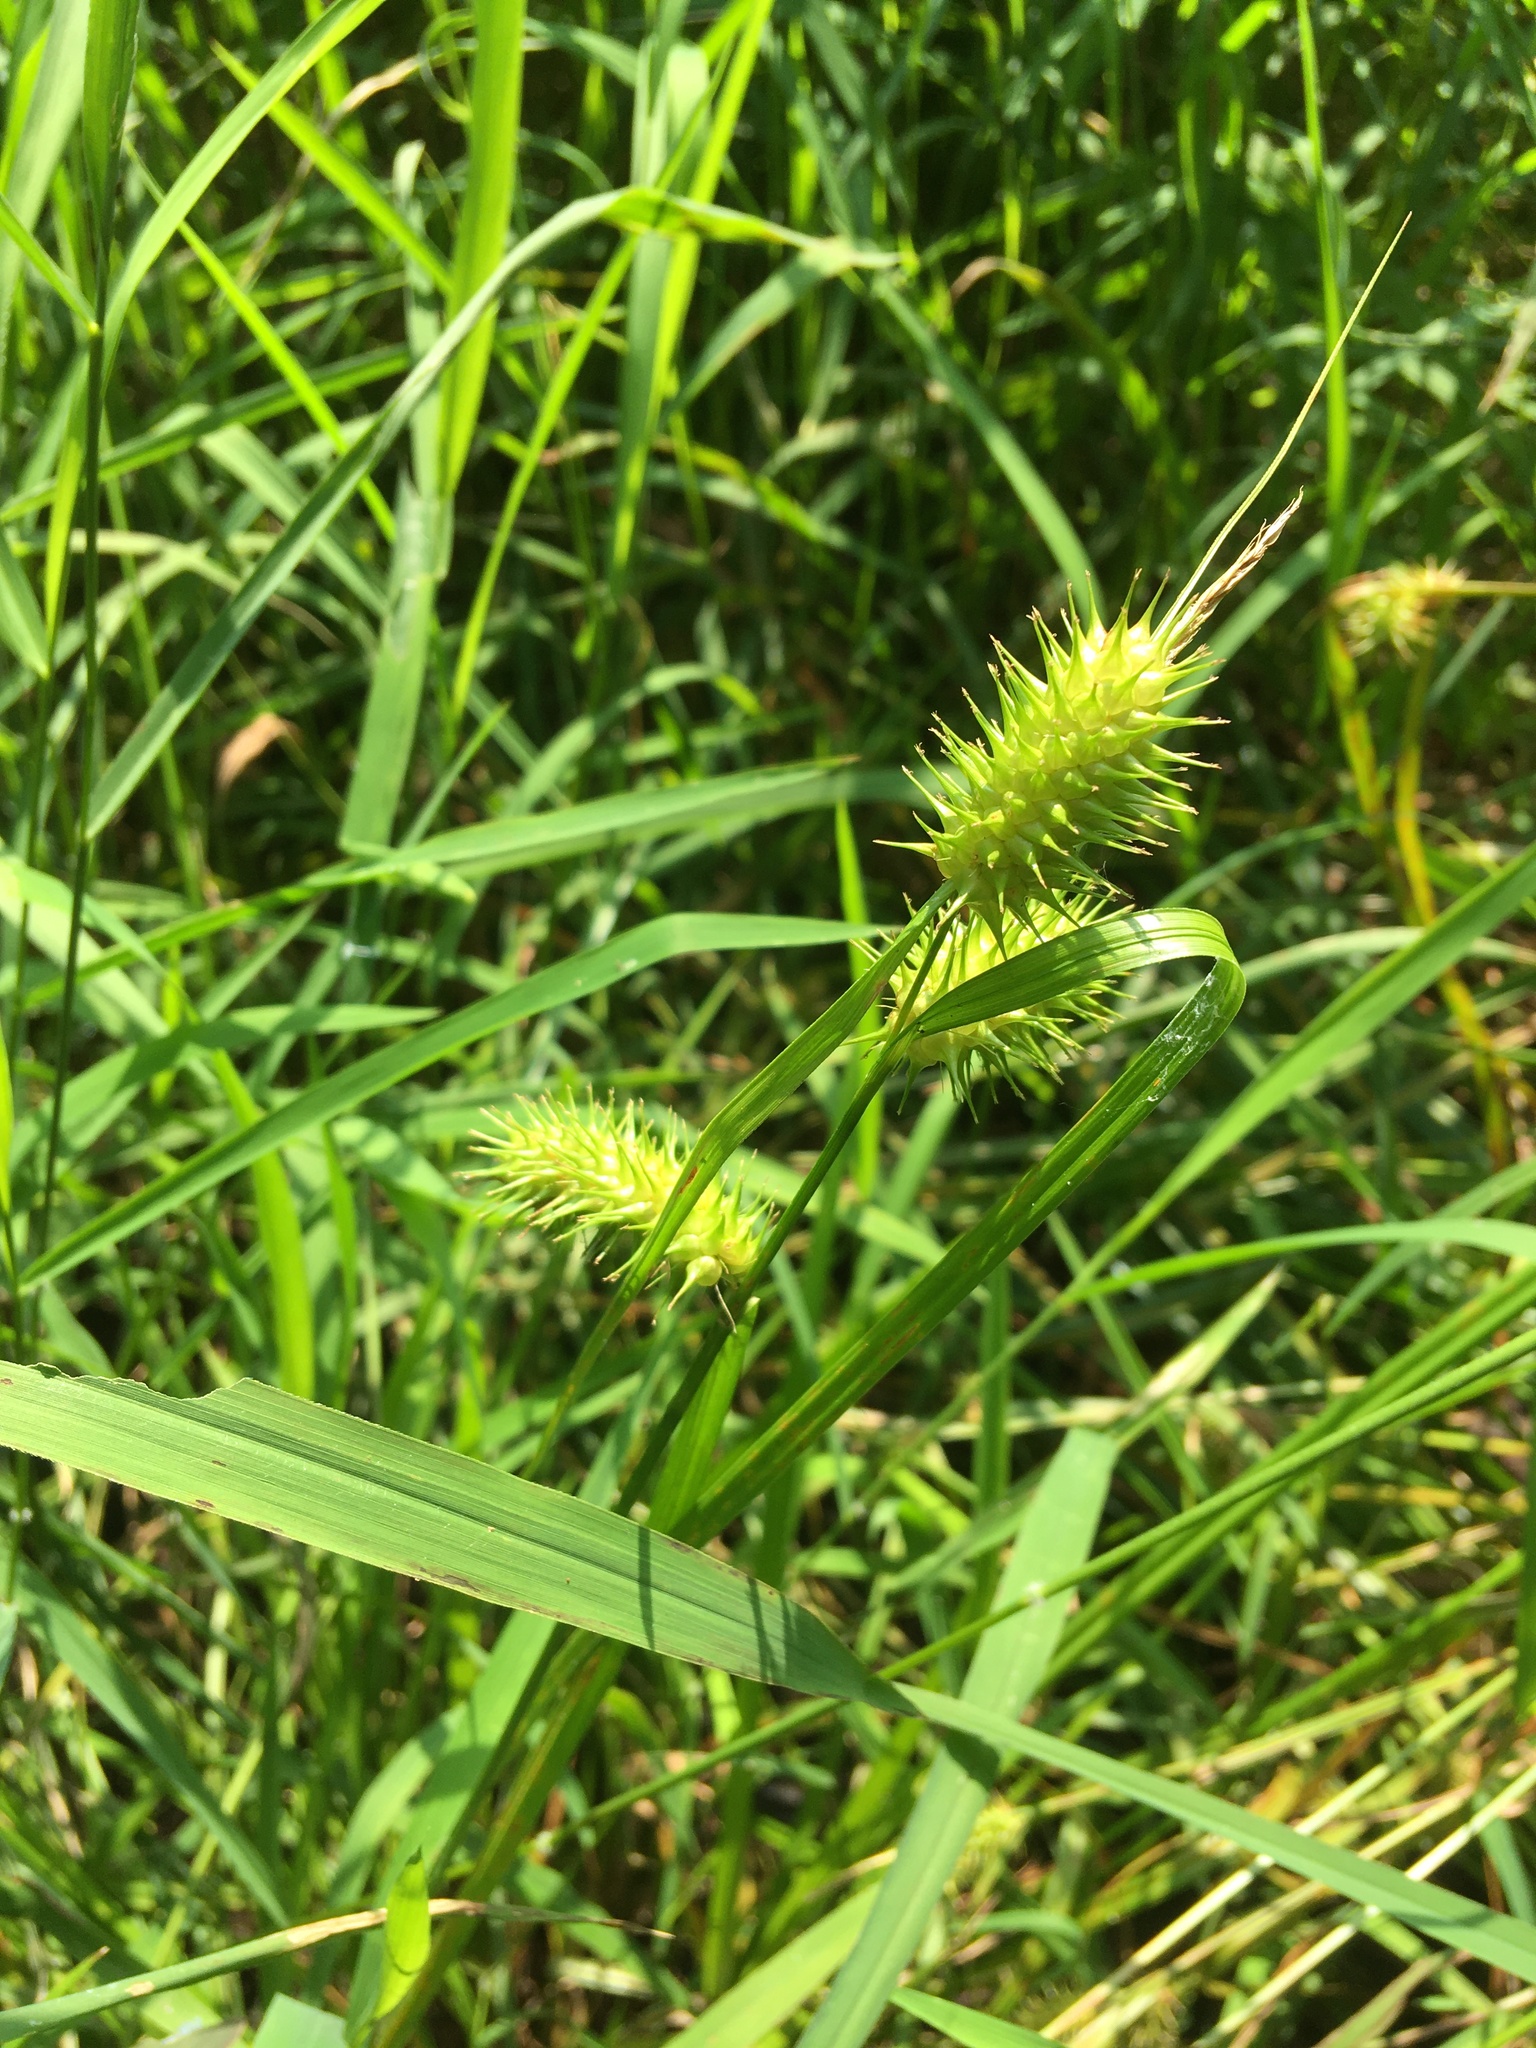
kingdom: Plantae
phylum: Tracheophyta
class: Liliopsida
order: Poales
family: Cyperaceae
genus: Carex
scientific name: Carex lurida
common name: Sallow sedge
